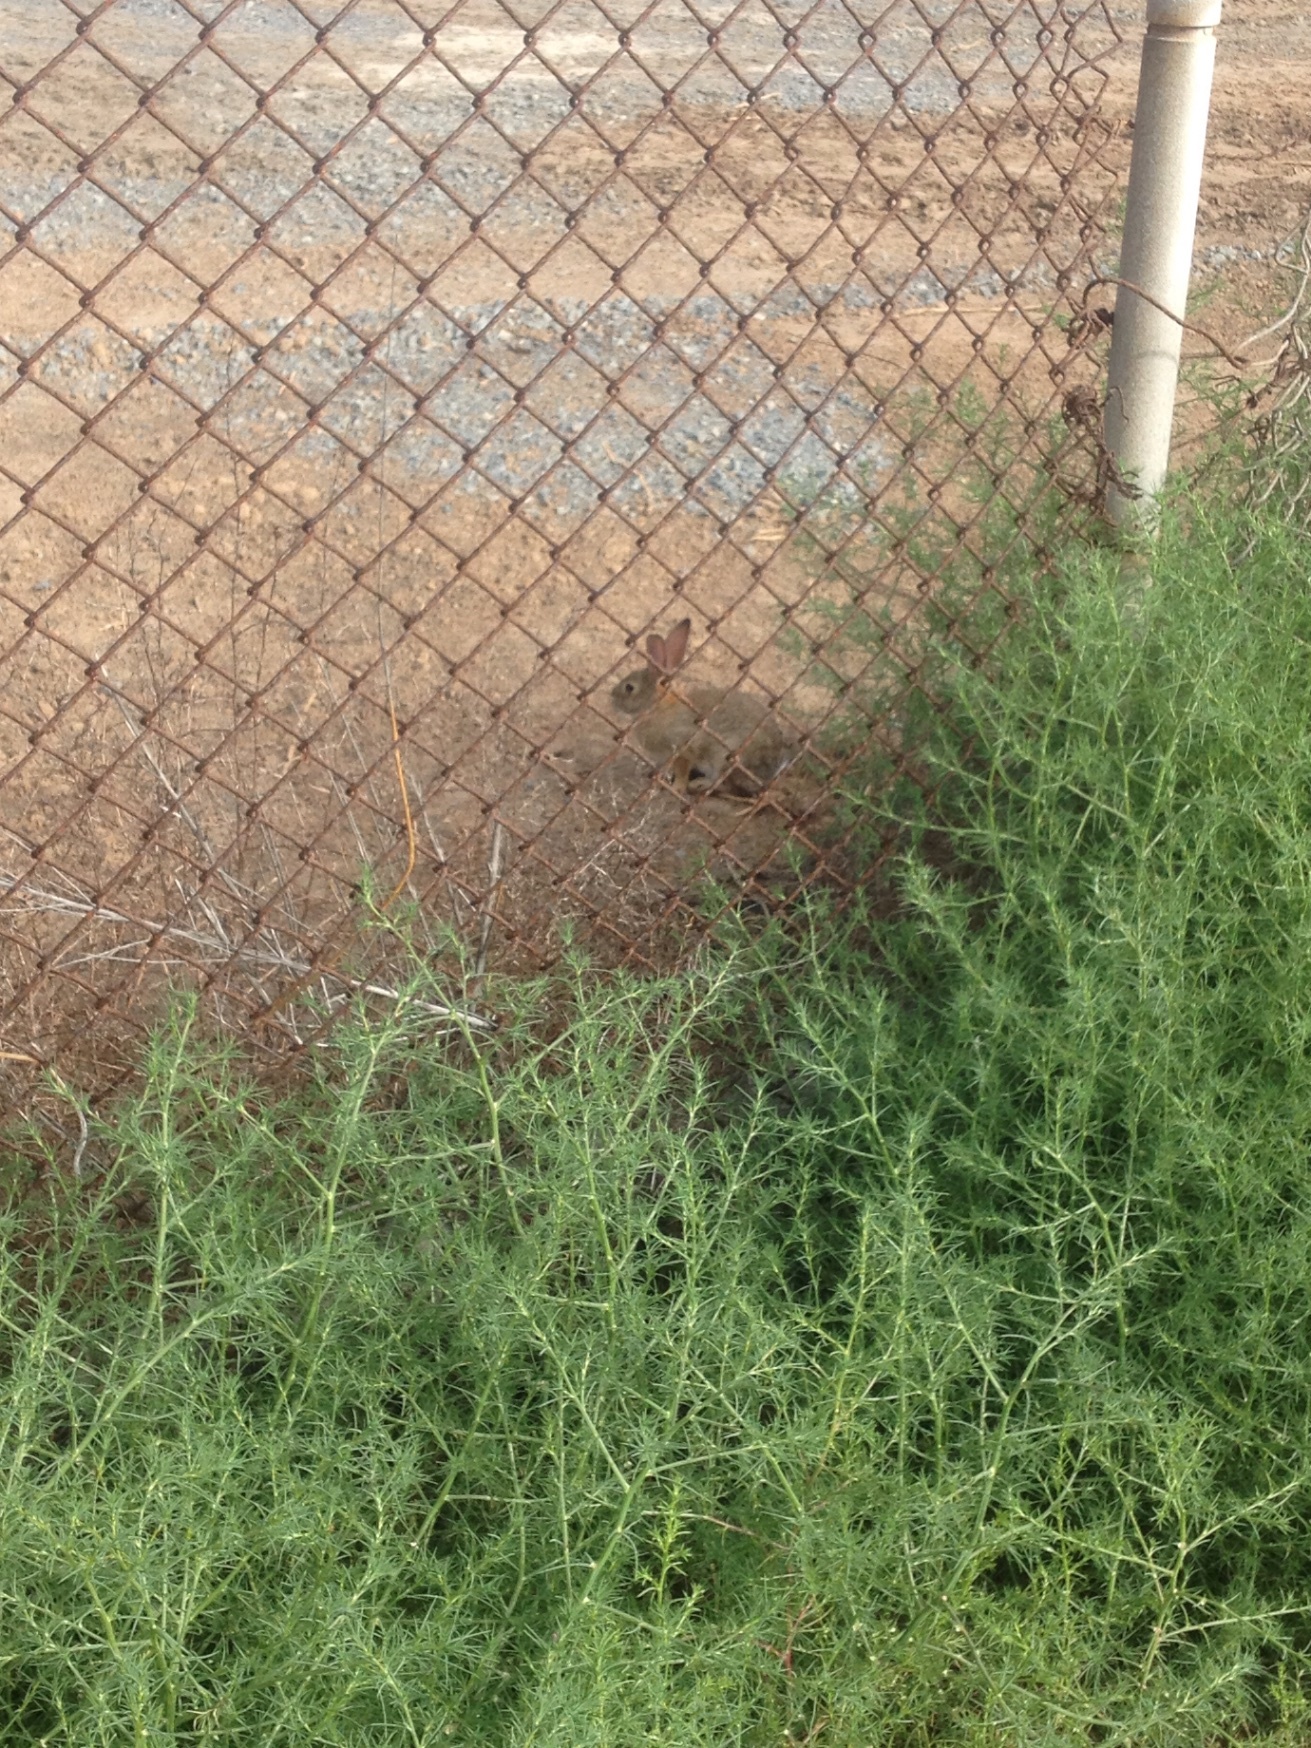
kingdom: Animalia
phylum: Chordata
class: Mammalia
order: Lagomorpha
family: Leporidae
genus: Sylvilagus
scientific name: Sylvilagus audubonii
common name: Desert cottontail
